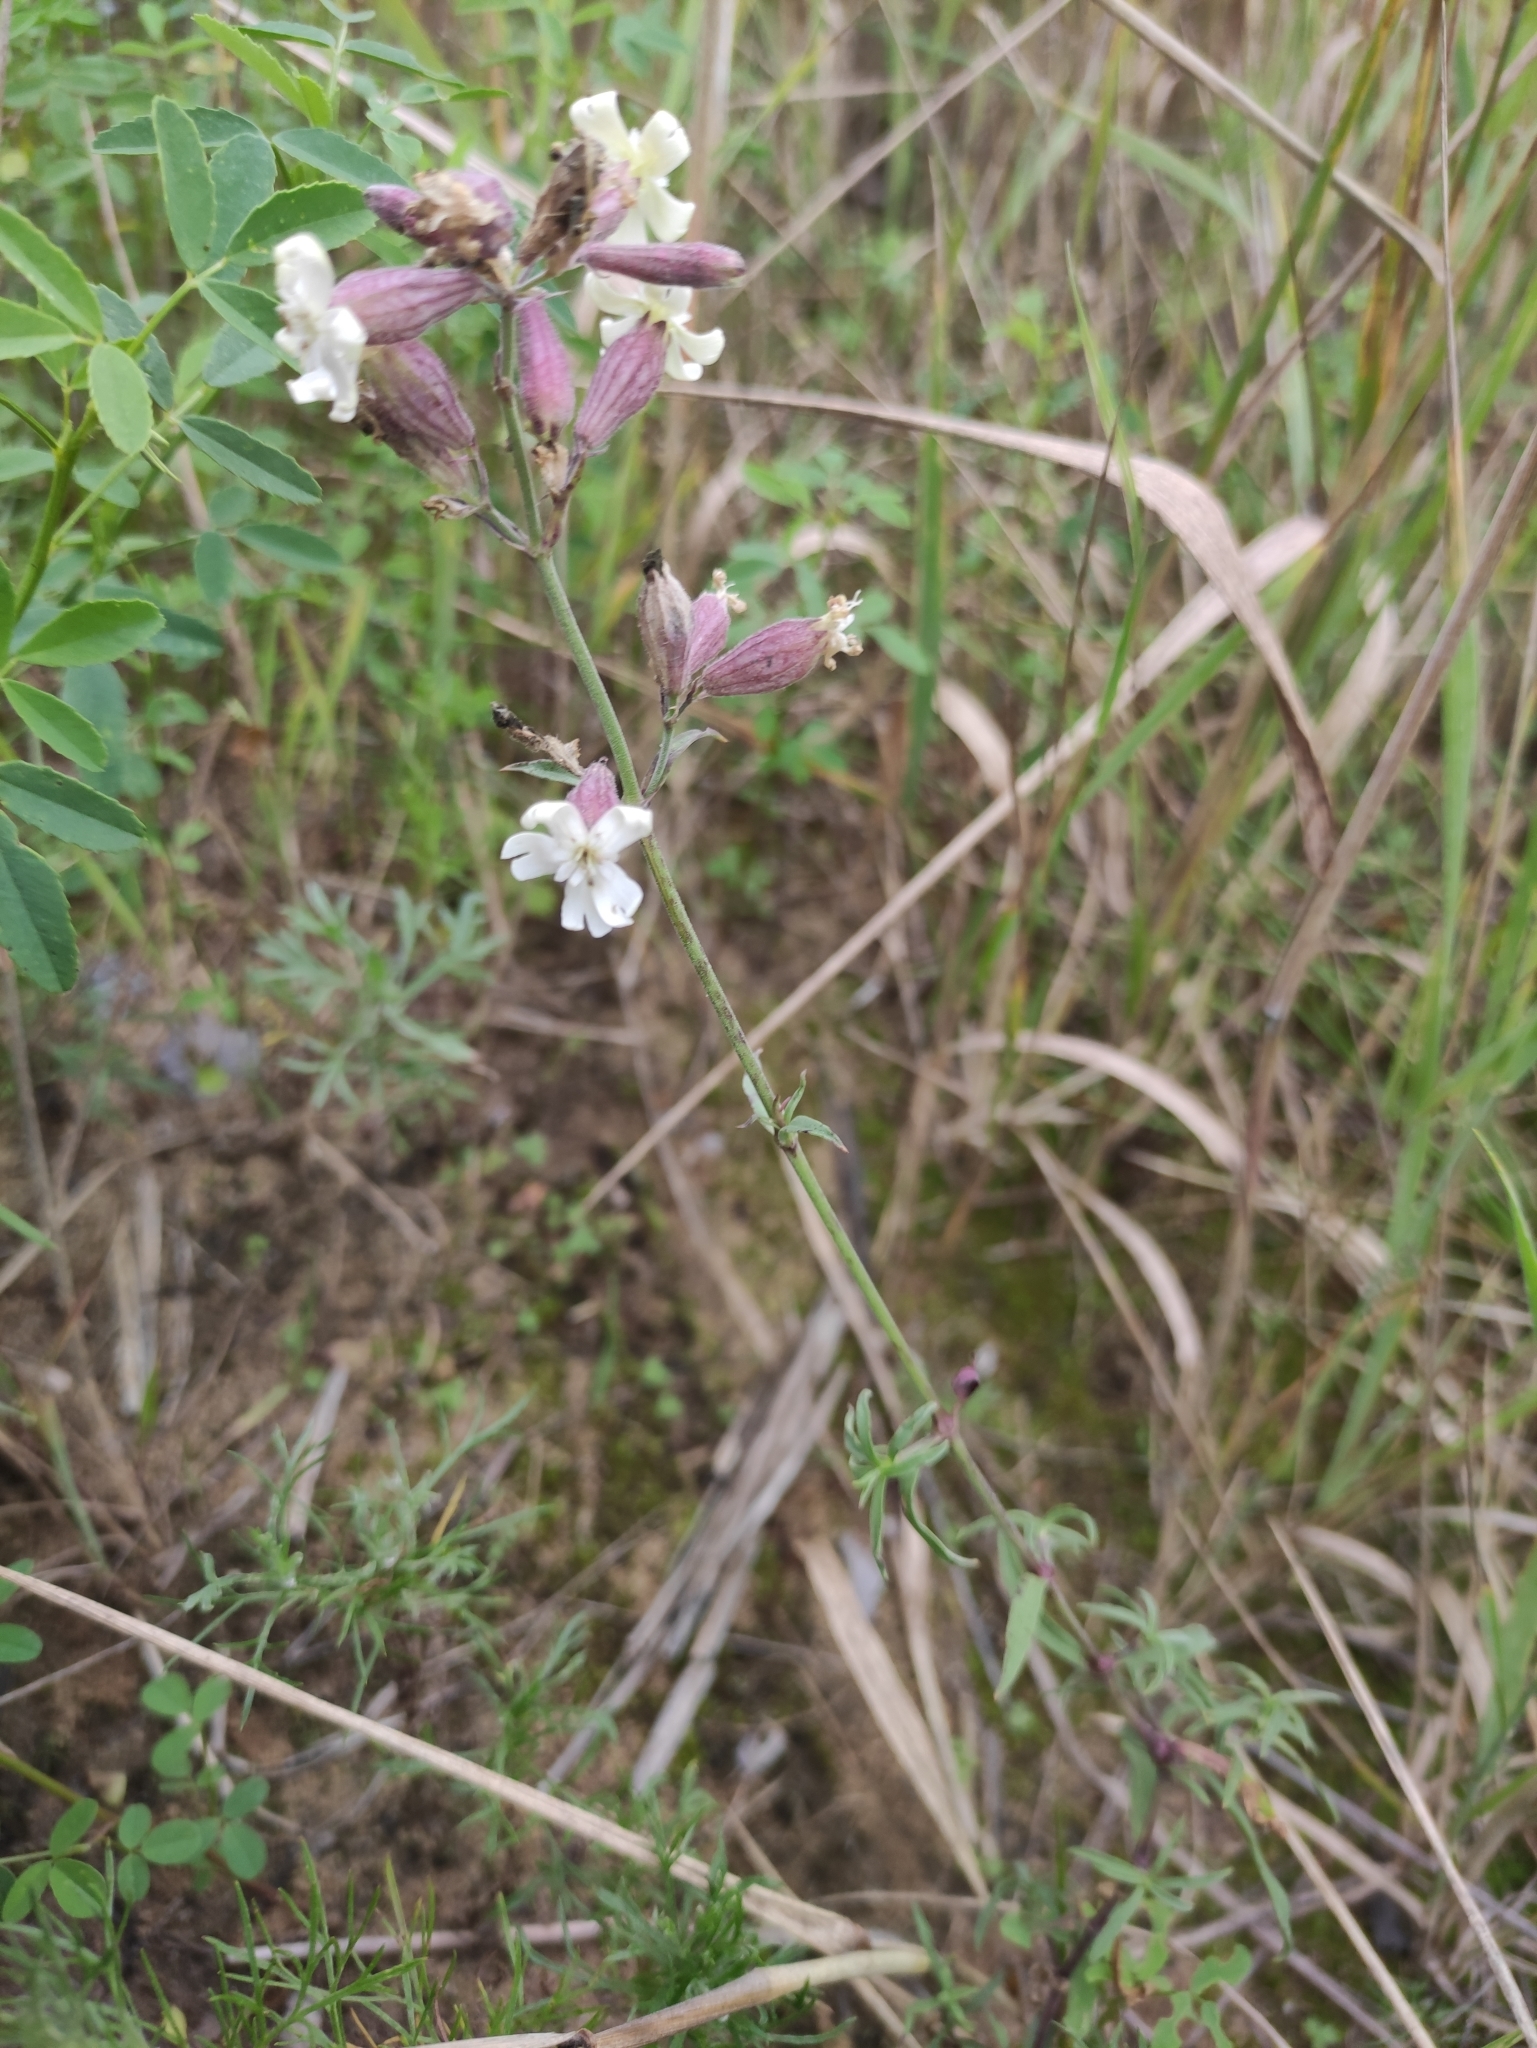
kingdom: Plantae
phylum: Tracheophyta
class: Magnoliopsida
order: Caryophyllales
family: Caryophyllaceae
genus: Silene
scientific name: Silene amoena
